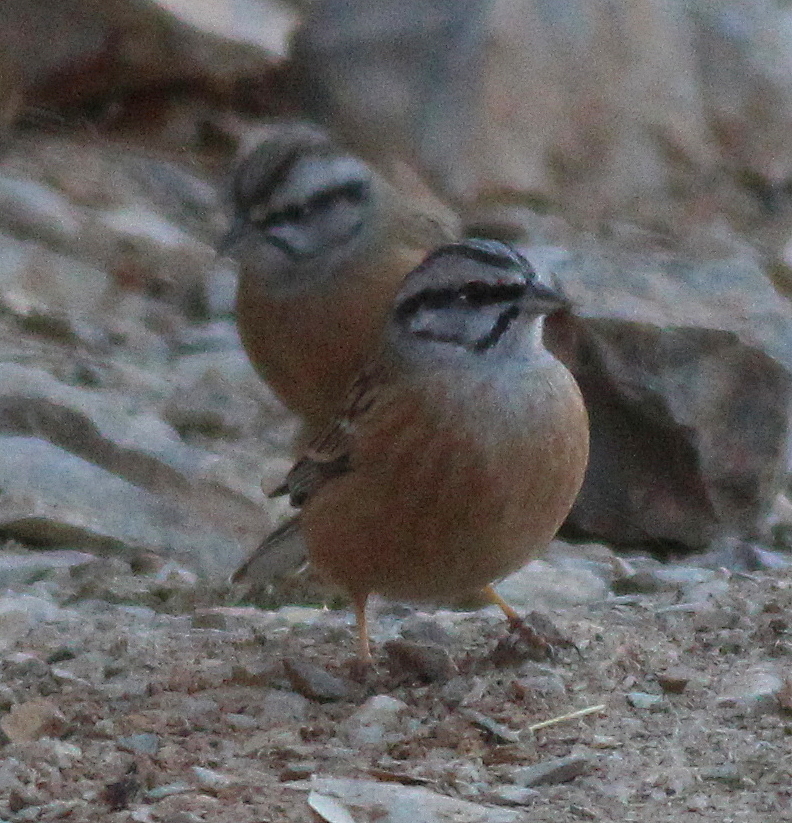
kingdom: Animalia
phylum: Chordata
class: Aves
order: Passeriformes
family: Emberizidae
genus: Emberiza
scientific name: Emberiza cia
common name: Rock bunting
